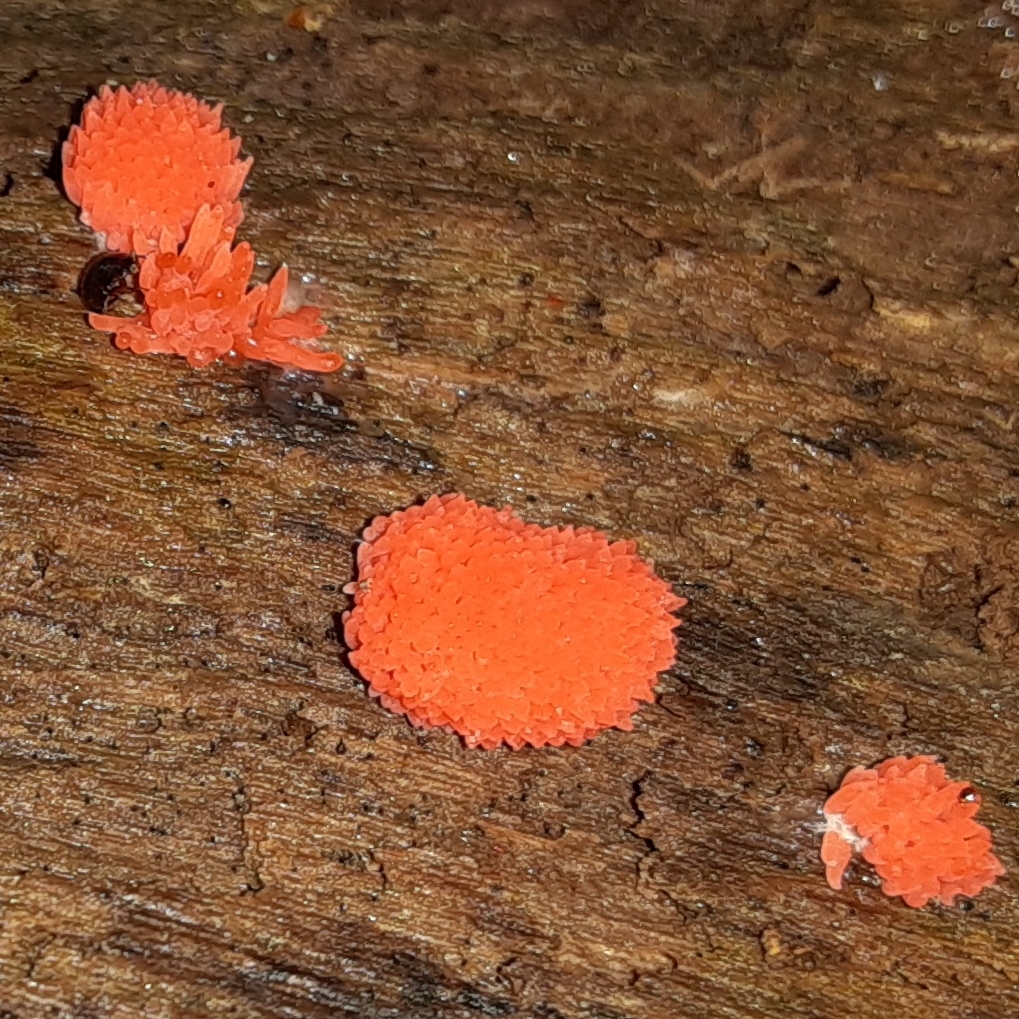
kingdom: Protozoa
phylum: Mycetozoa
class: Myxomycetes
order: Cribrariales
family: Tubiferaceae
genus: Tubifera
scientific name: Tubifera ferruginosa
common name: Red raspberry slime mold
